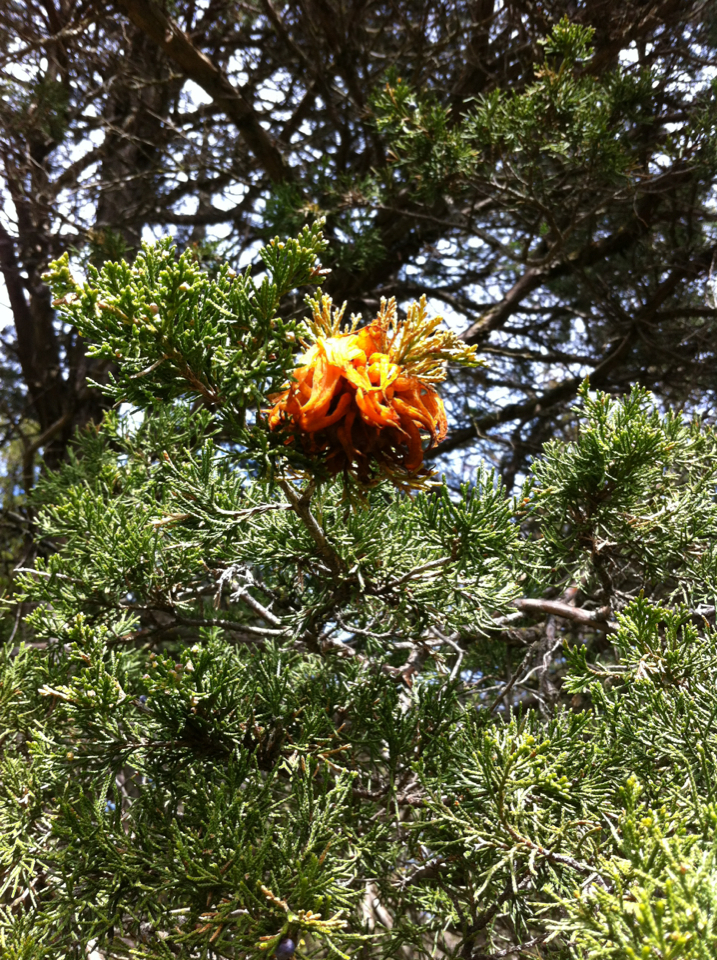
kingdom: Fungi
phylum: Basidiomycota
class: Pucciniomycetes
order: Pucciniales
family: Gymnosporangiaceae
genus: Gymnosporangium
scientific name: Gymnosporangium juniperi-virginianae
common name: Juniper-apple rust
